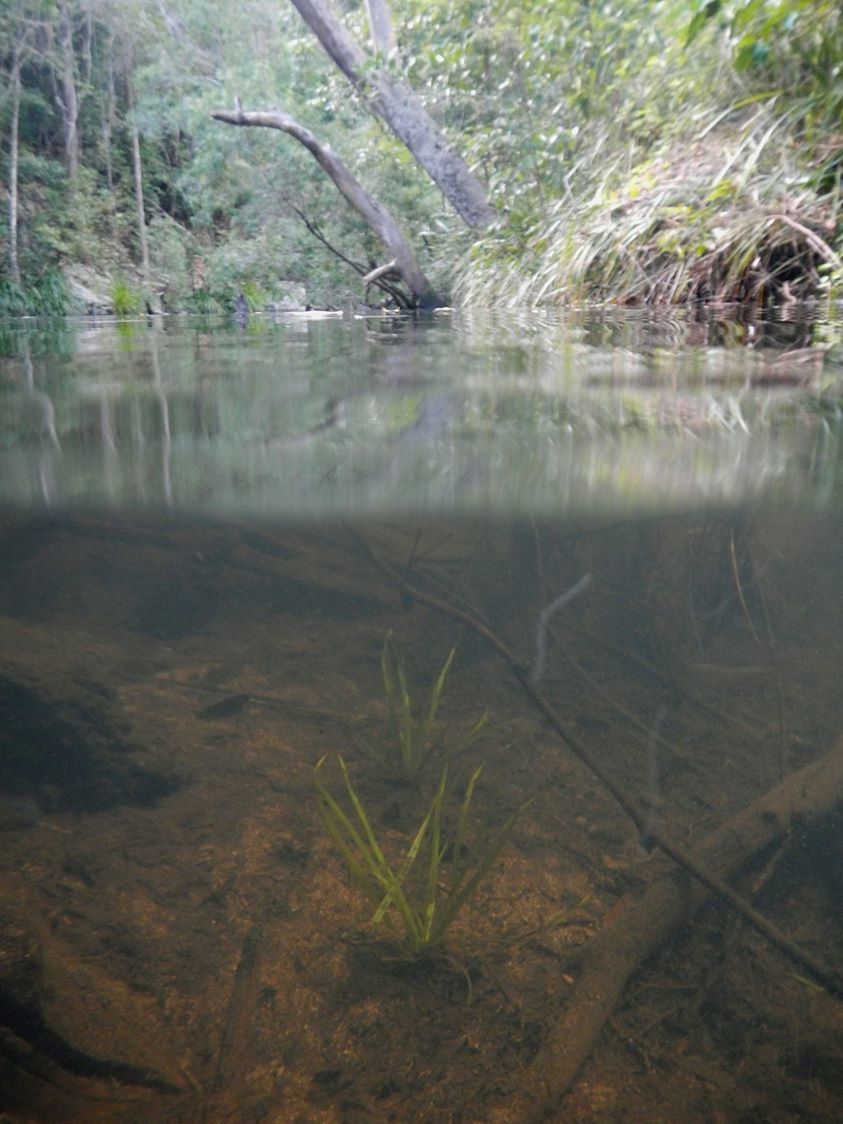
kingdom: Animalia
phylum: Chordata
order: Atheriniformes
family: Melanotaeniidae
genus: Melanotaenia
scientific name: Melanotaenia splendida
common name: Checkered rainbowfish
